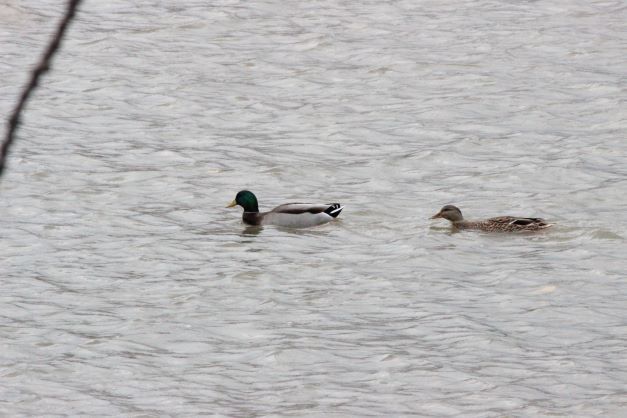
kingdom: Animalia
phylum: Chordata
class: Aves
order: Anseriformes
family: Anatidae
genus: Anas
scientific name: Anas platyrhynchos
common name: Mallard
